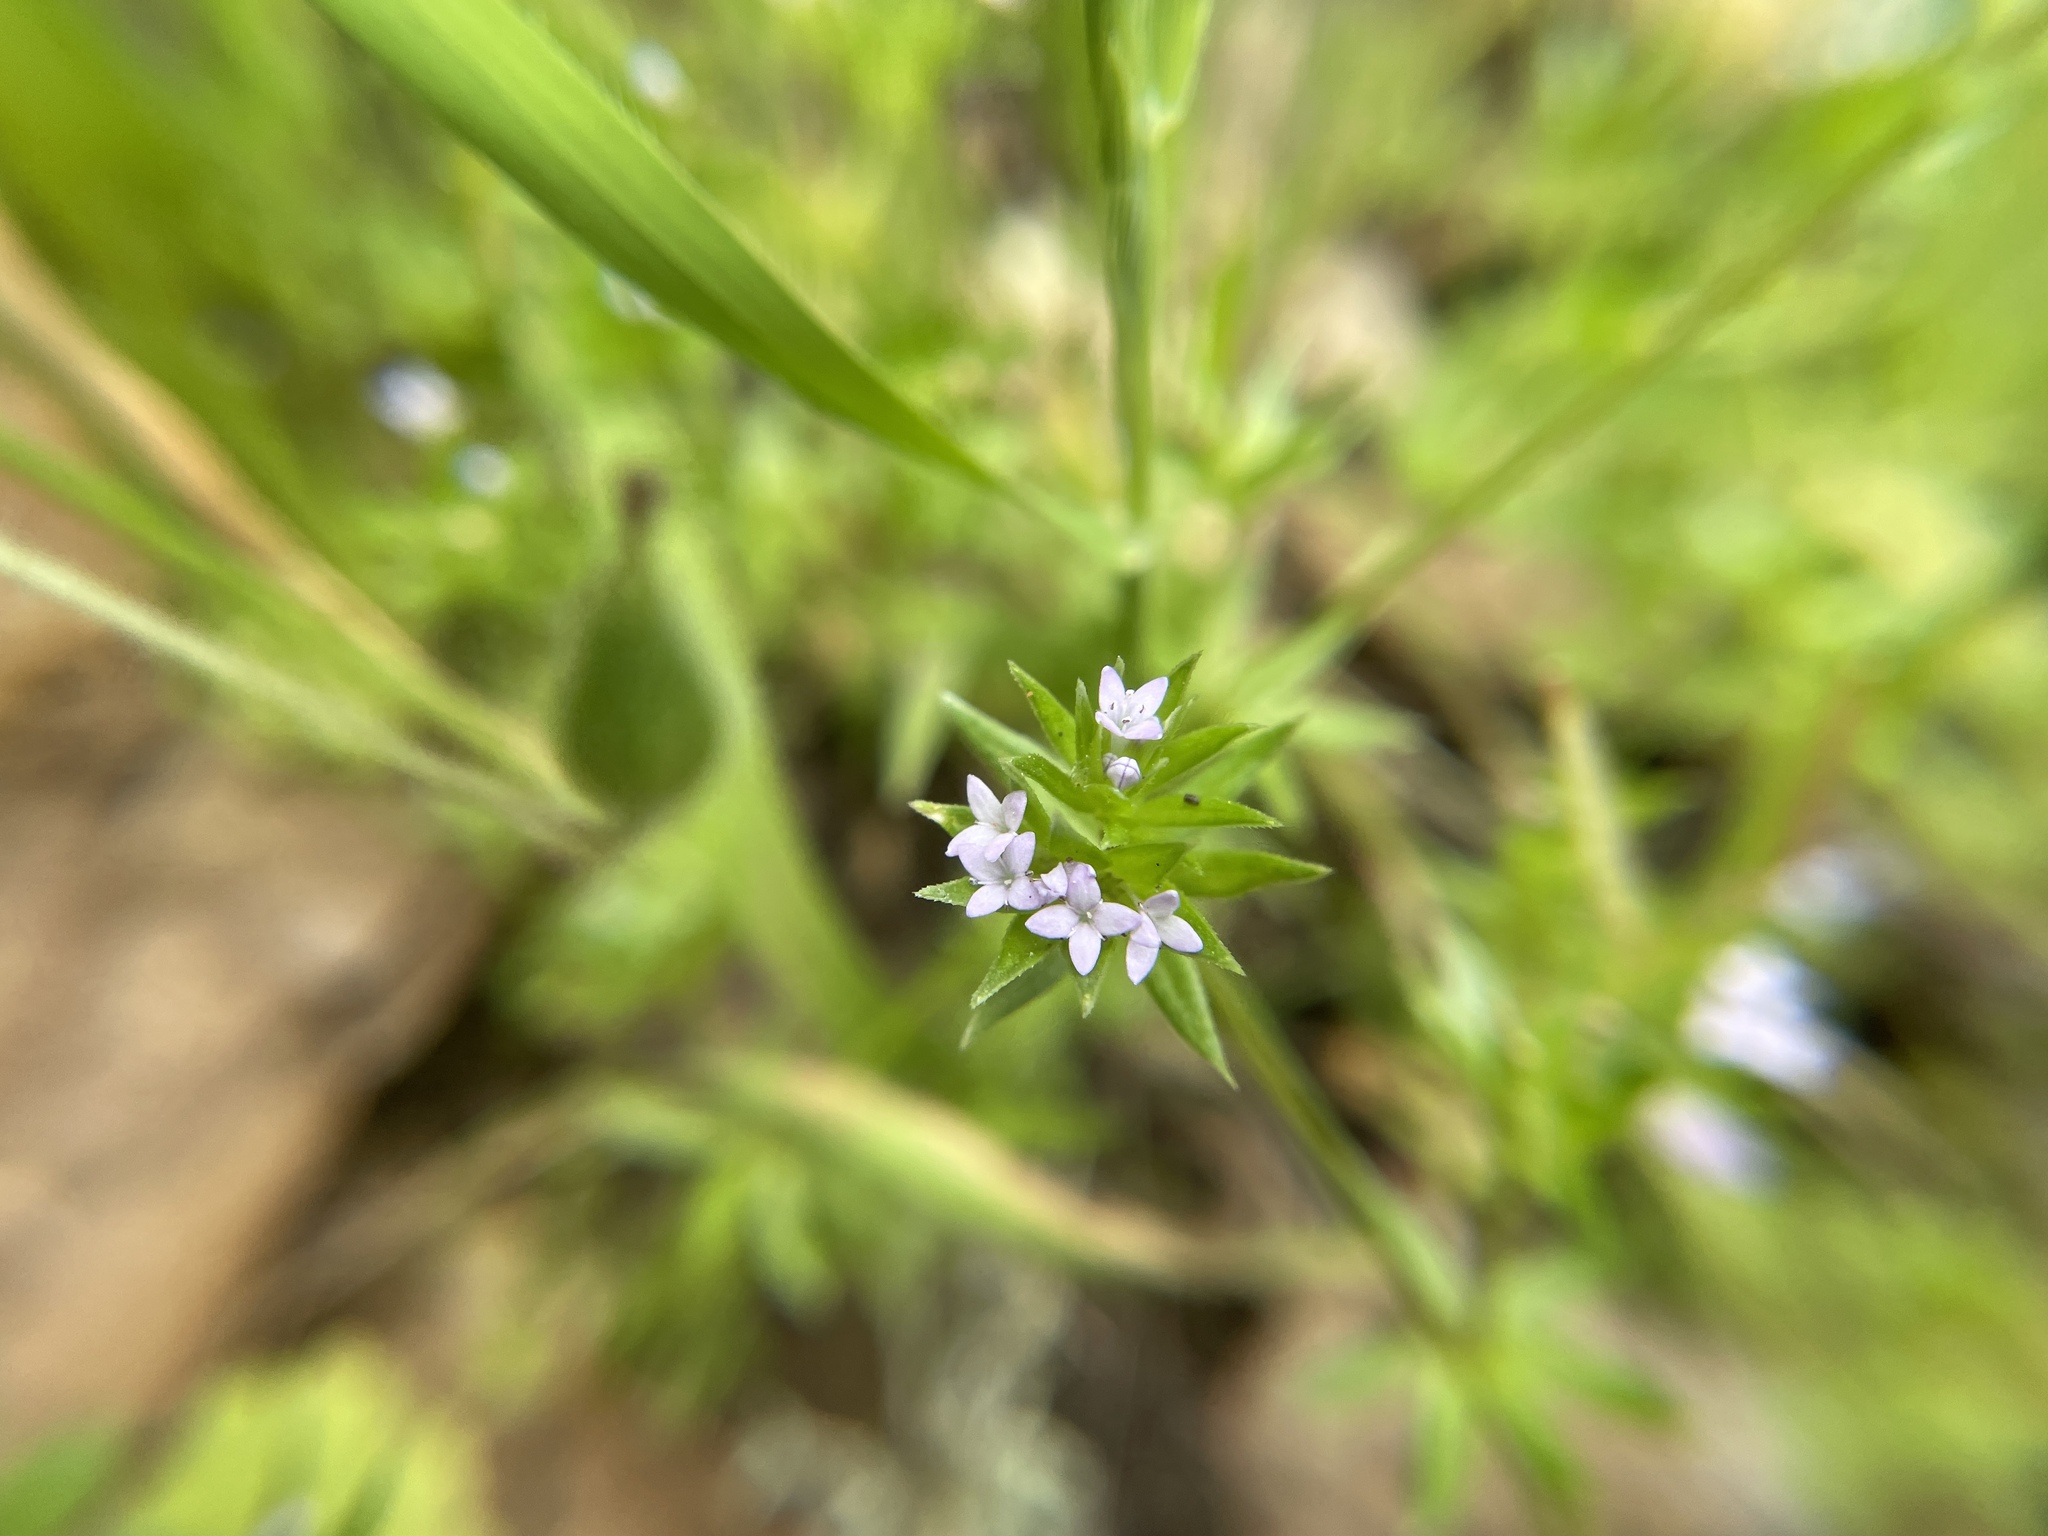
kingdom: Plantae
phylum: Tracheophyta
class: Magnoliopsida
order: Gentianales
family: Rubiaceae
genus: Sherardia
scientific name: Sherardia arvensis
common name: Field madder
